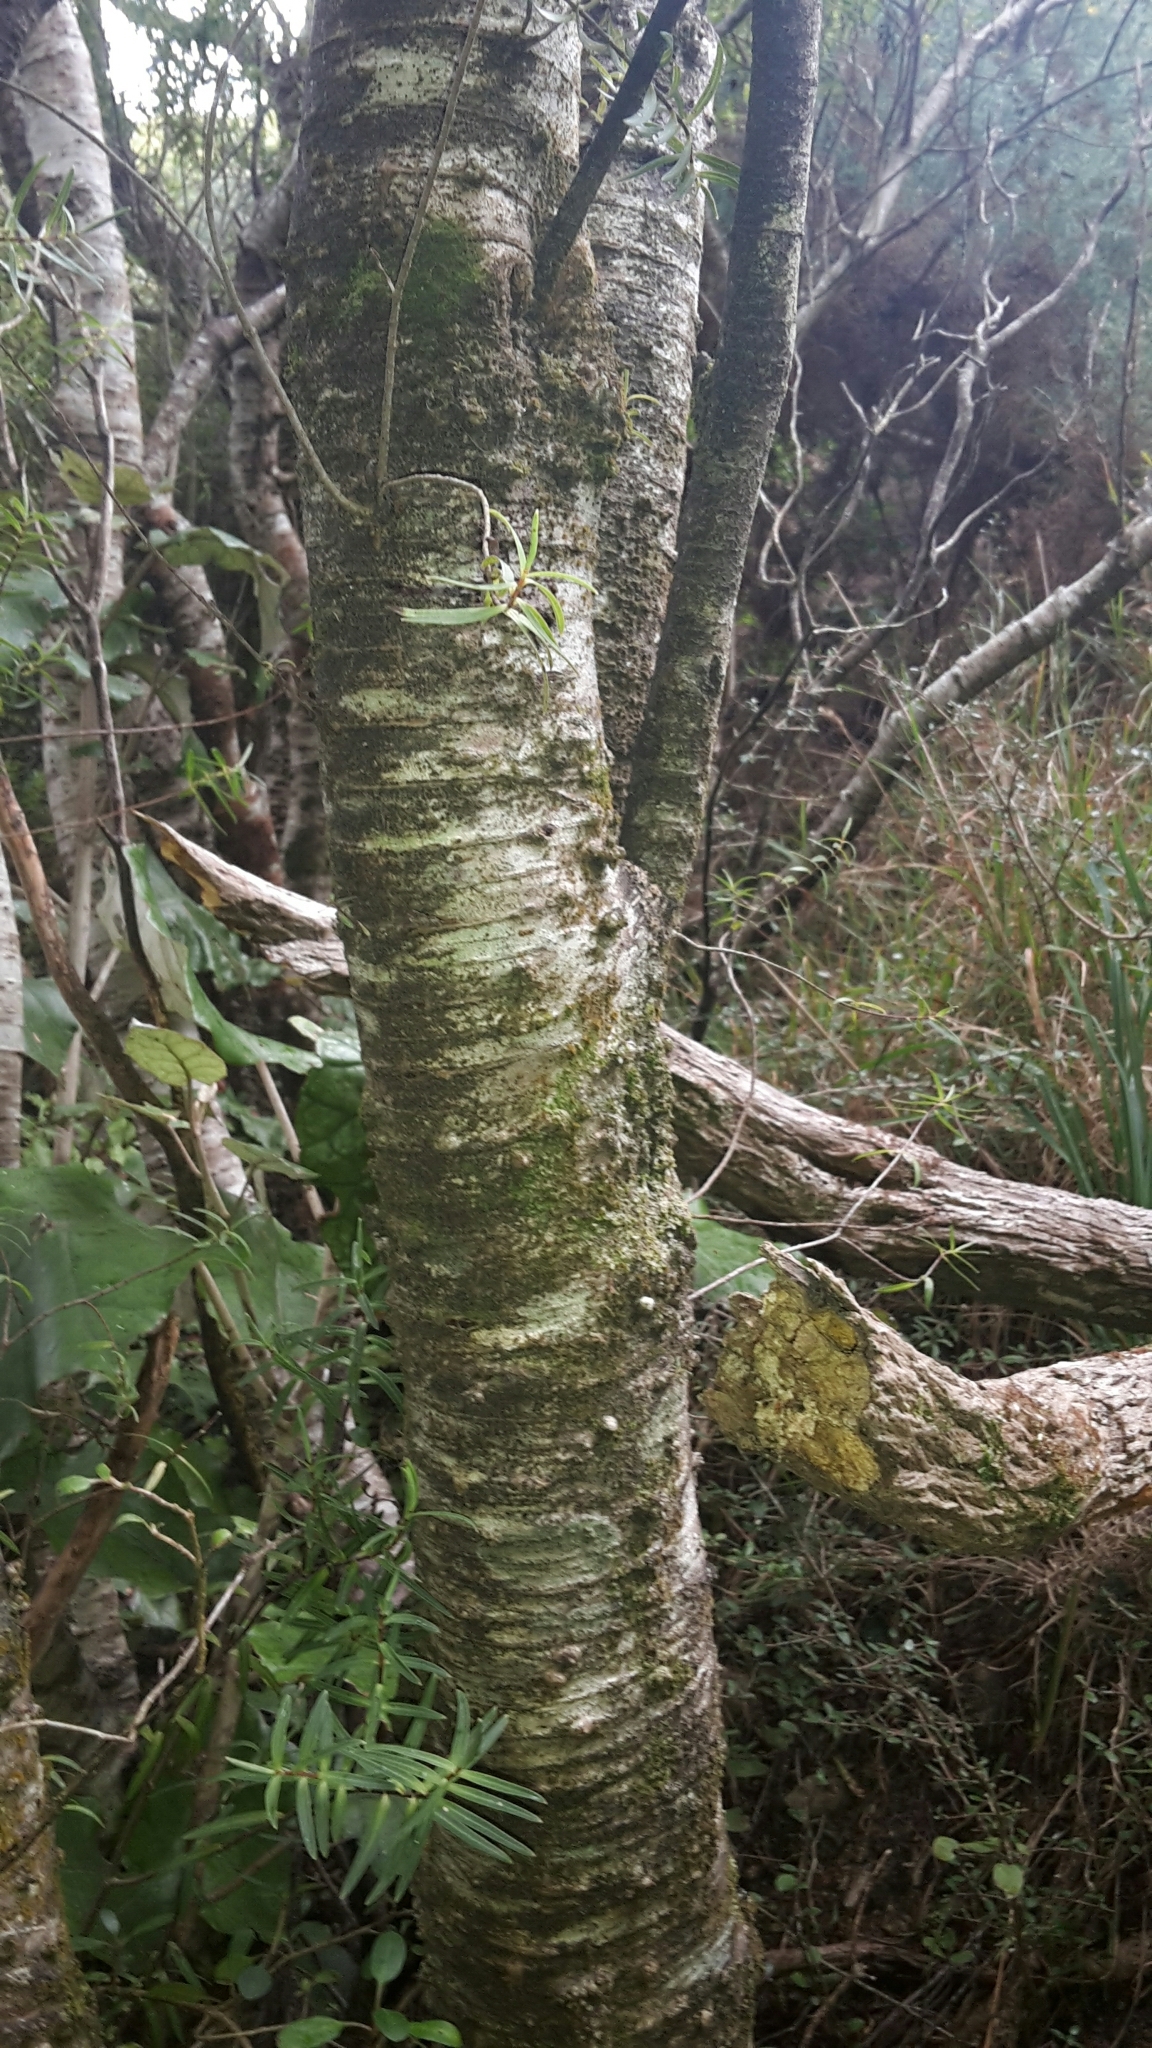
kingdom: Plantae
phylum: Tracheophyta
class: Magnoliopsida
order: Lamiales
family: Plantaginaceae
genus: Veronica
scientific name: Veronica parviflora
